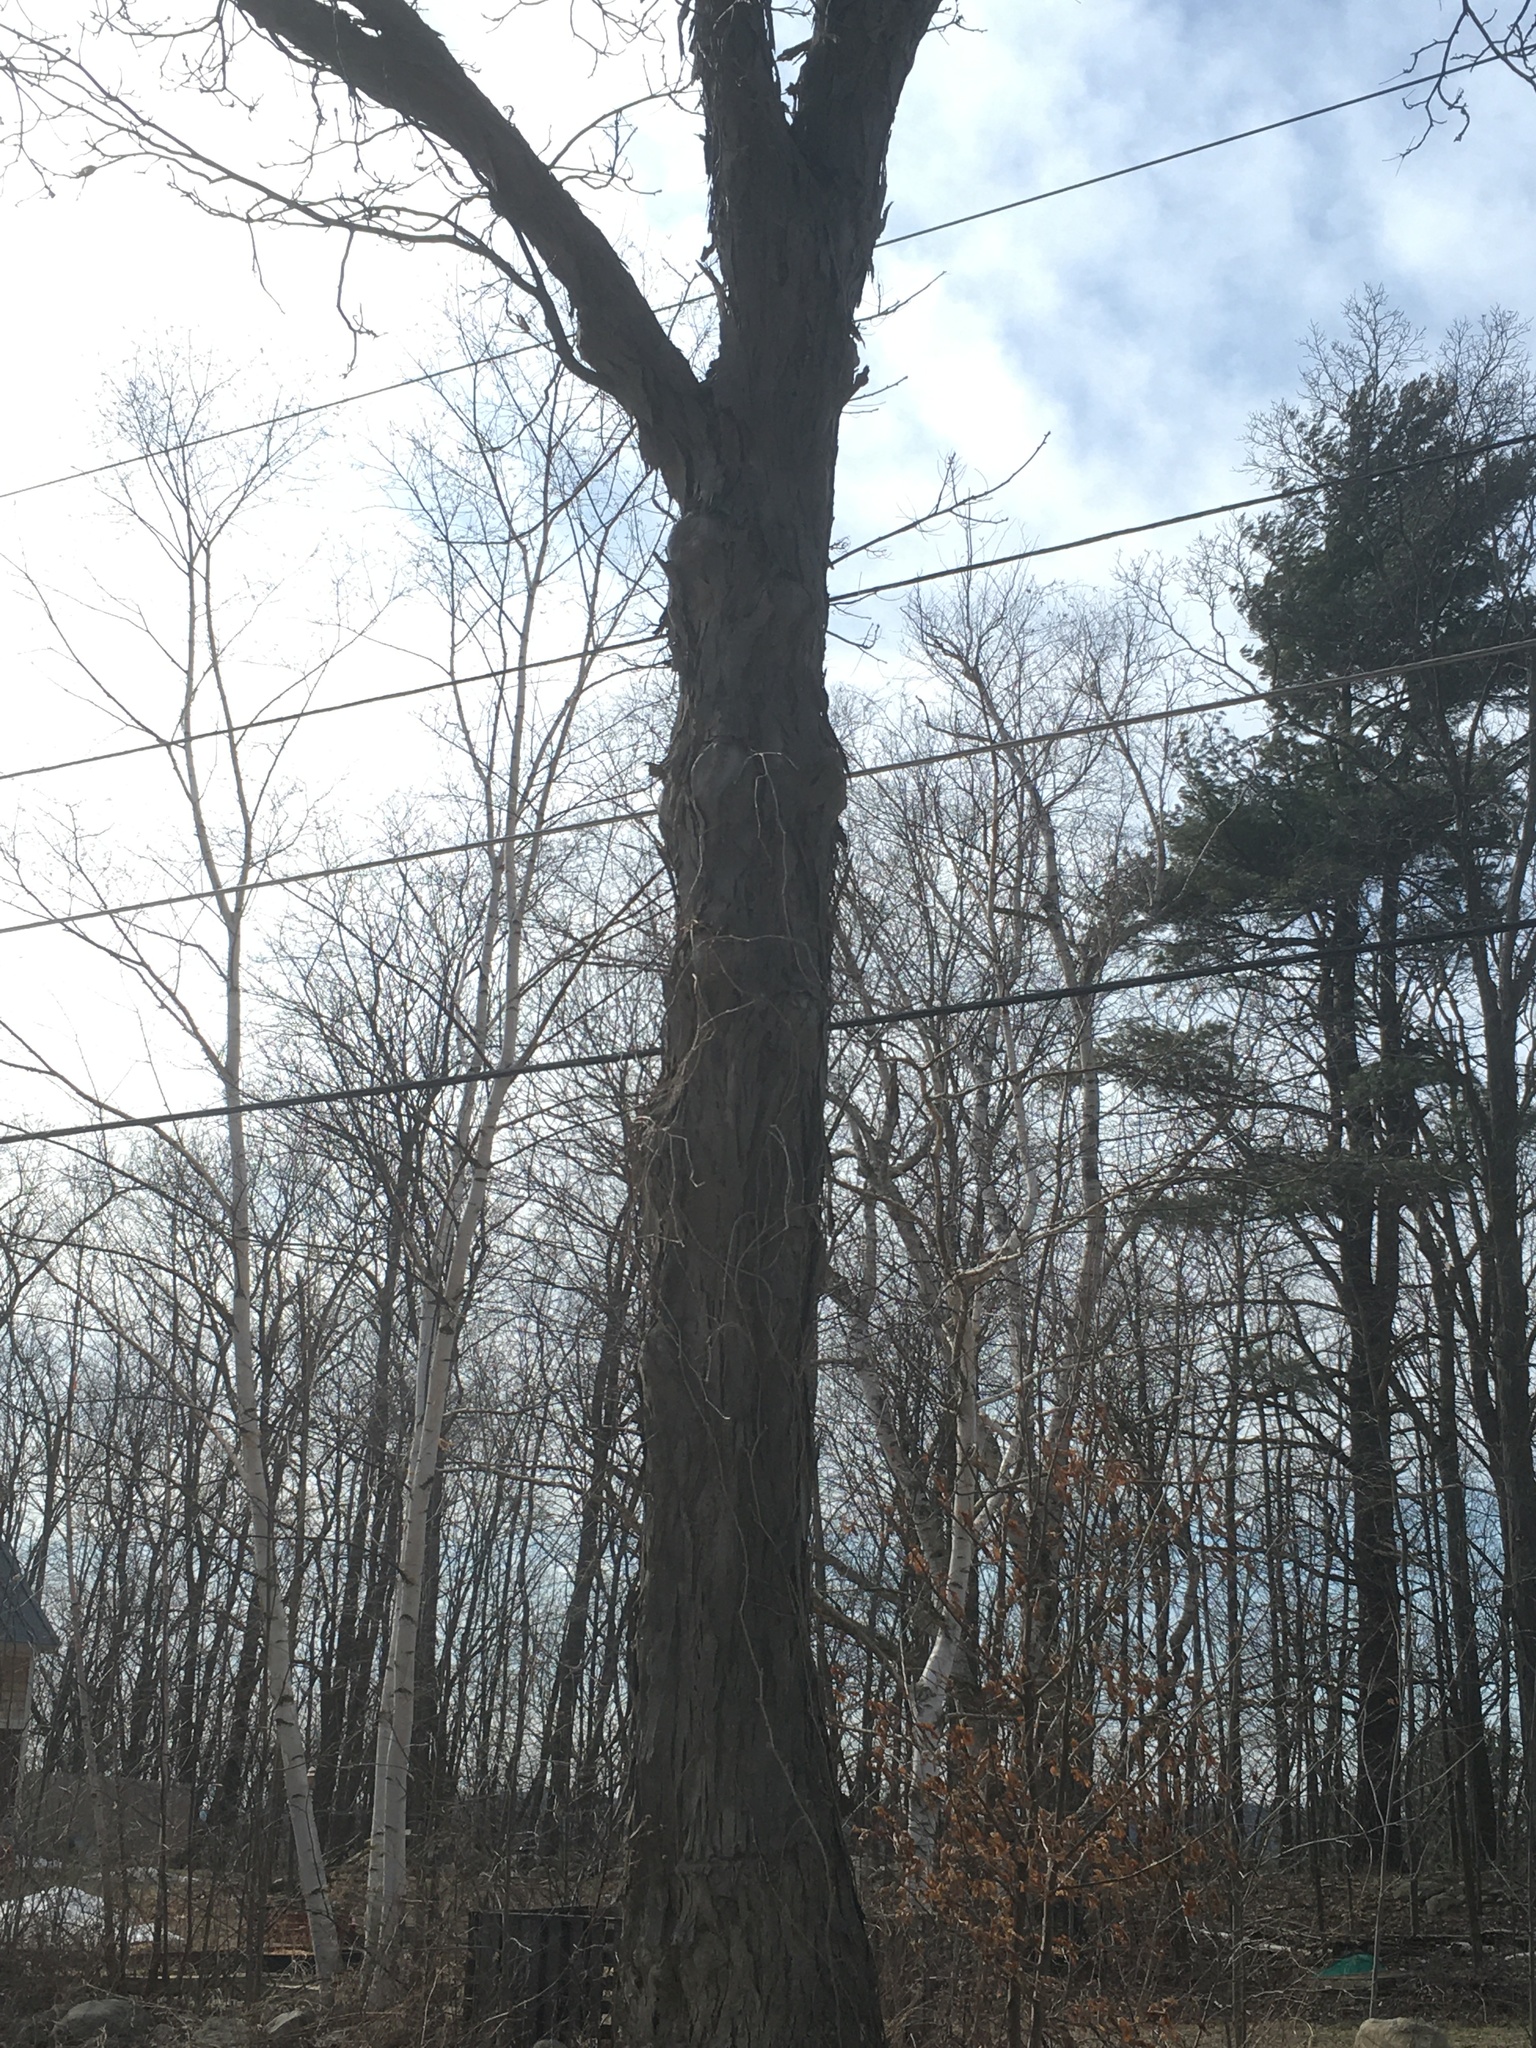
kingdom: Plantae
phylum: Tracheophyta
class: Magnoliopsida
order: Fagales
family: Juglandaceae
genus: Carya
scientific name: Carya ovata
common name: Shagbark hickory
